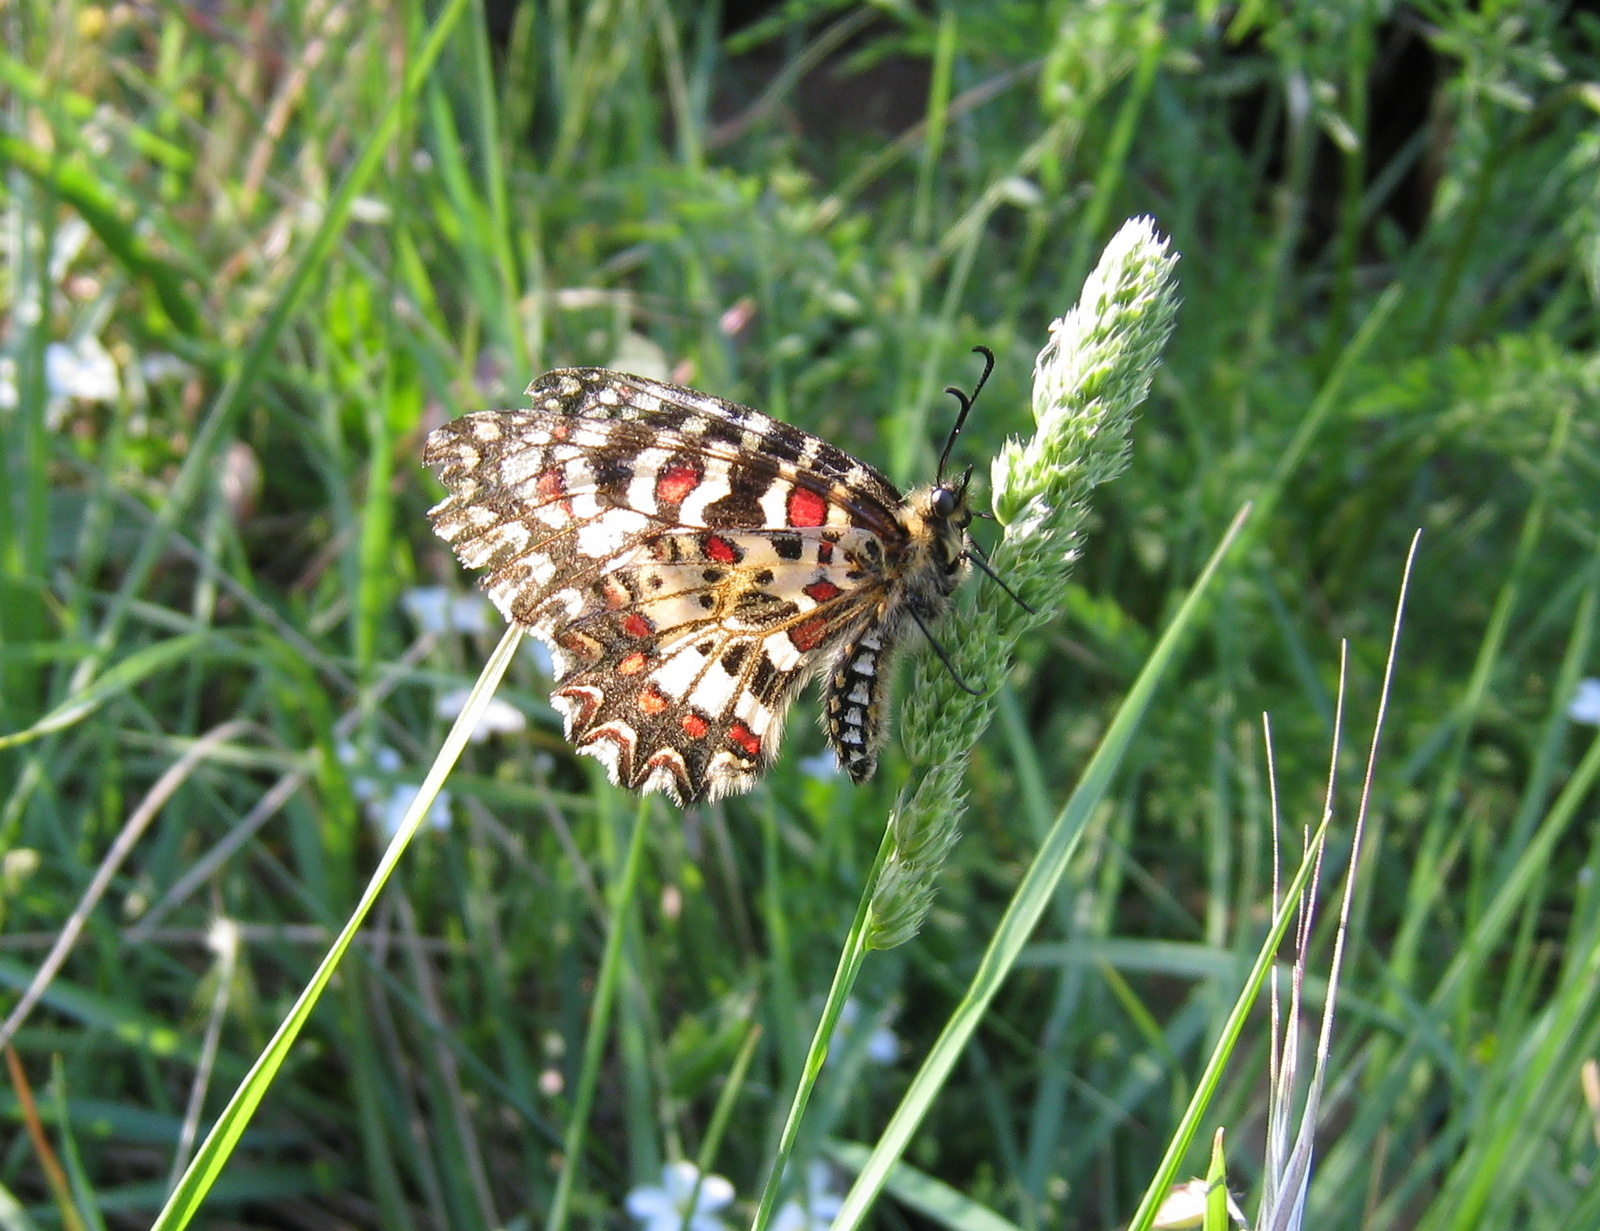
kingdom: Animalia
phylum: Arthropoda
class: Insecta
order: Lepidoptera
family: Papilionidae
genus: Zerynthia
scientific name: Zerynthia rumina
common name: Spanish festoon
